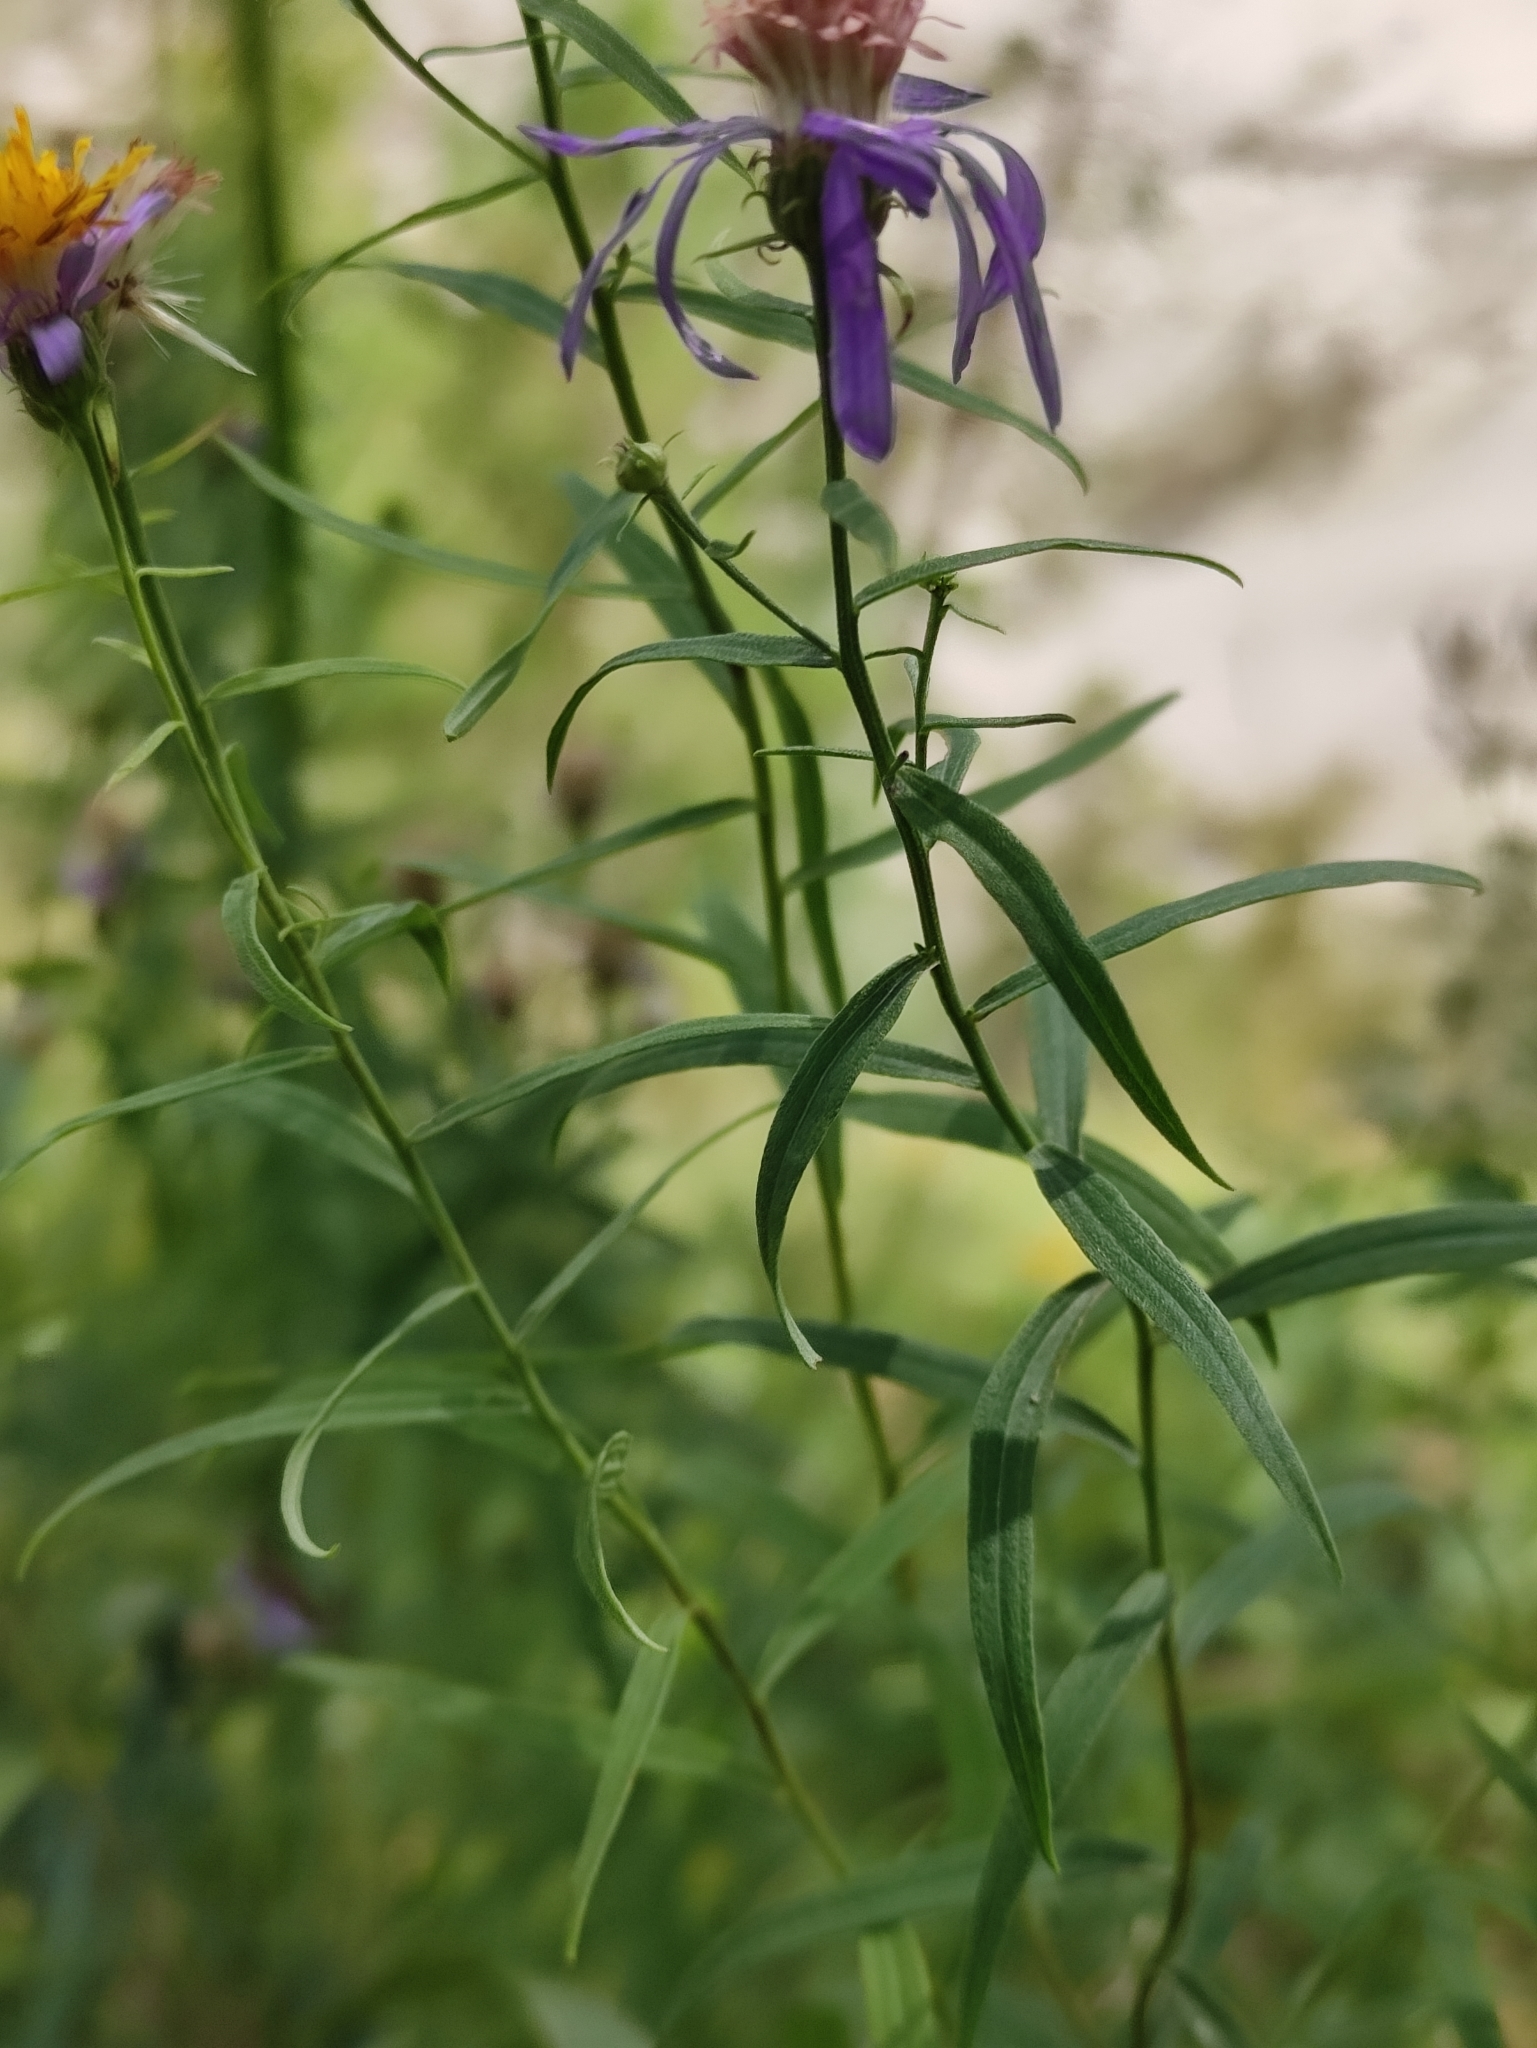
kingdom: Plantae
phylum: Tracheophyta
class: Magnoliopsida
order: Asterales
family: Asteraceae
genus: Galatella
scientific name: Galatella dahurica
